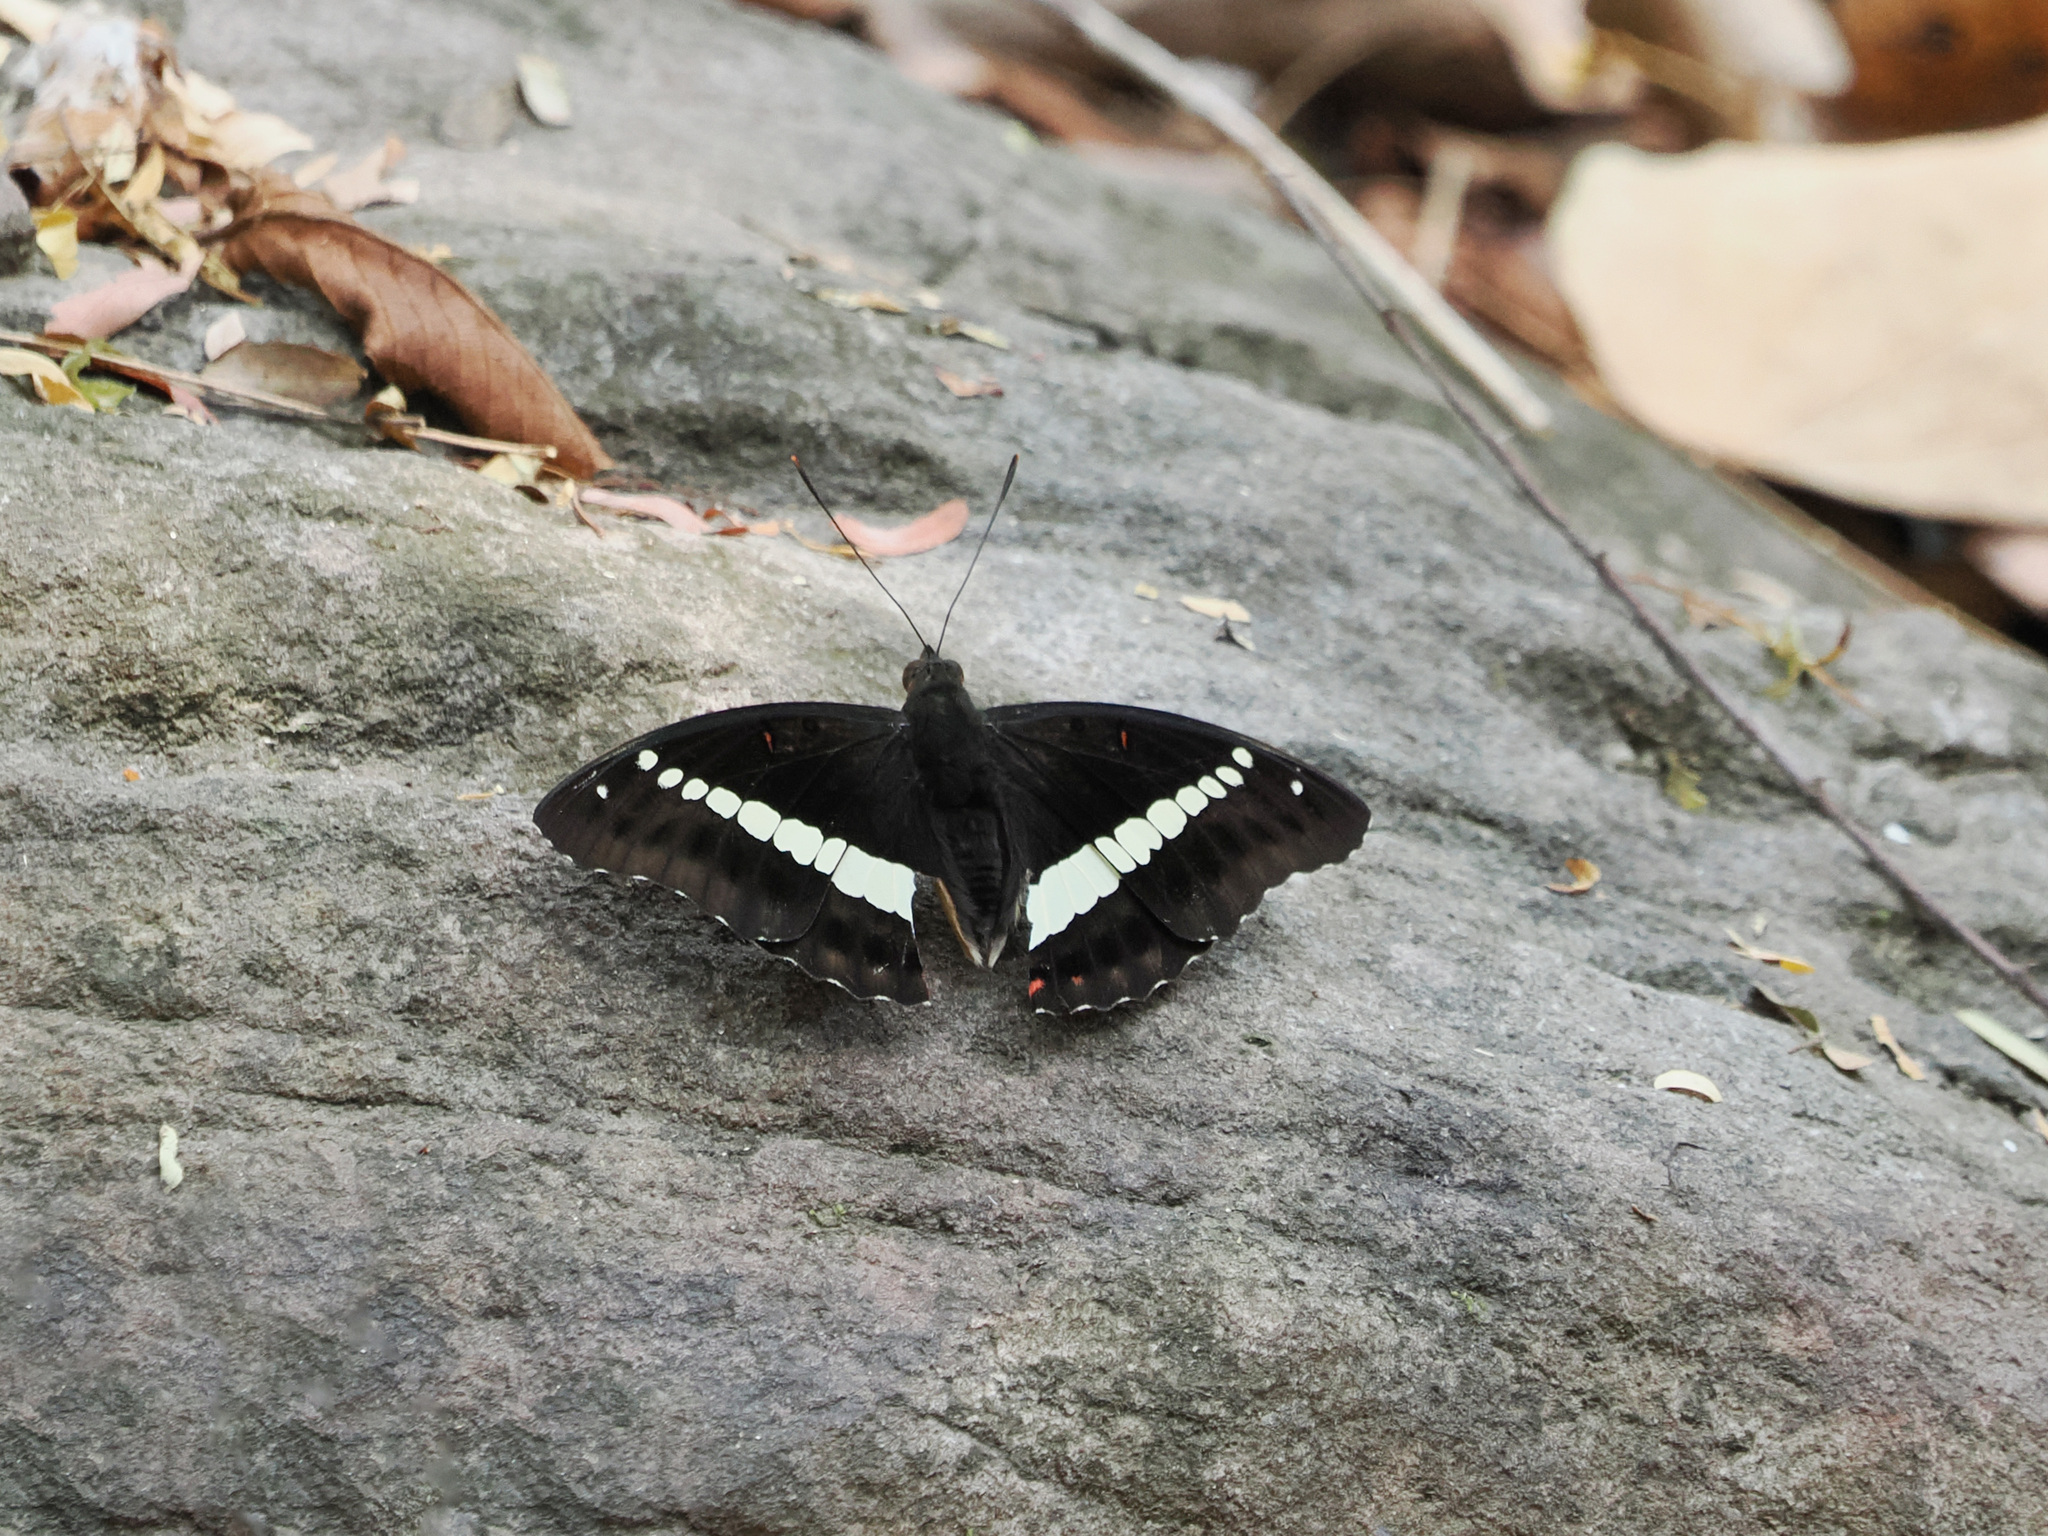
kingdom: Animalia
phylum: Arthropoda
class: Insecta
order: Lepidoptera
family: Nymphalidae
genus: Euthalia
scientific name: Euthalia recta
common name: Redtail marquis
